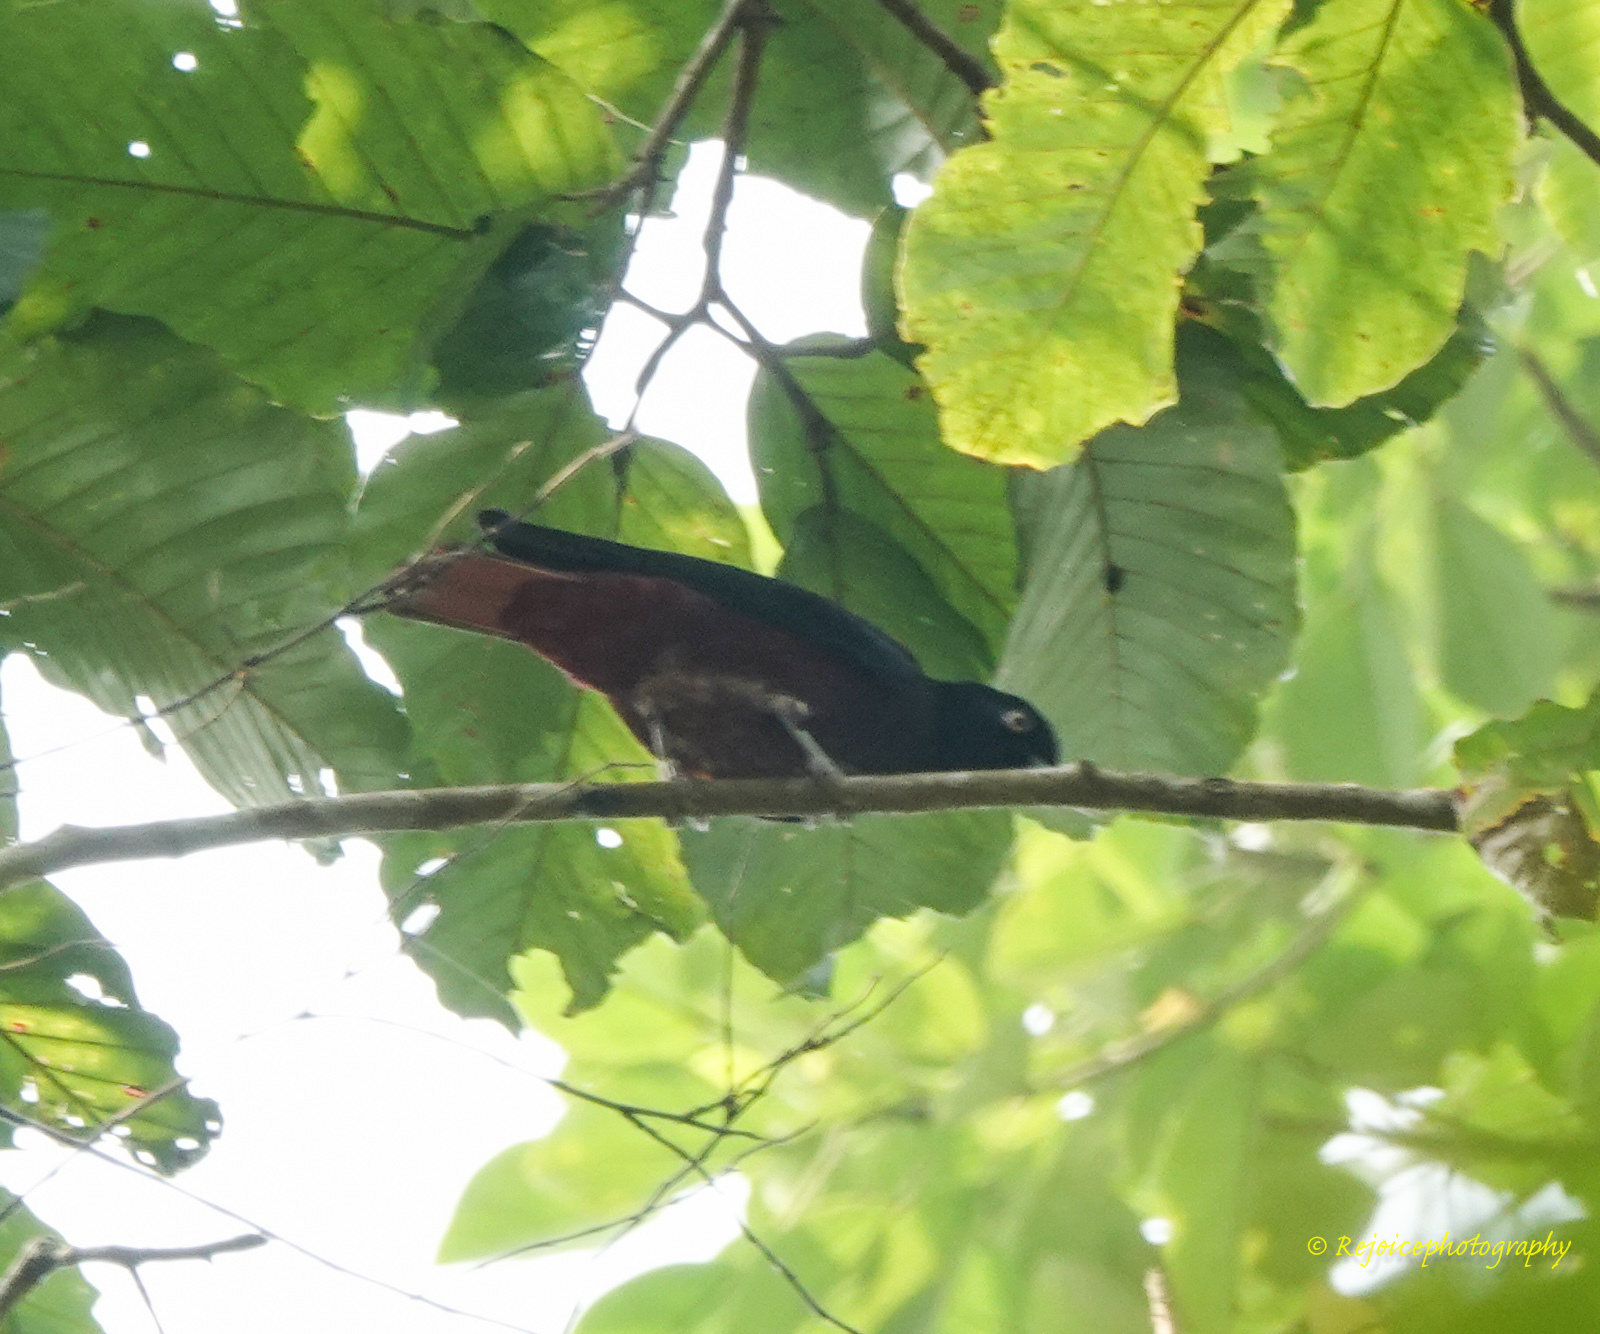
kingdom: Animalia
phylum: Chordata
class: Aves
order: Passeriformes
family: Oriolidae
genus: Oriolus
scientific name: Oriolus traillii
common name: Maroon oriole
